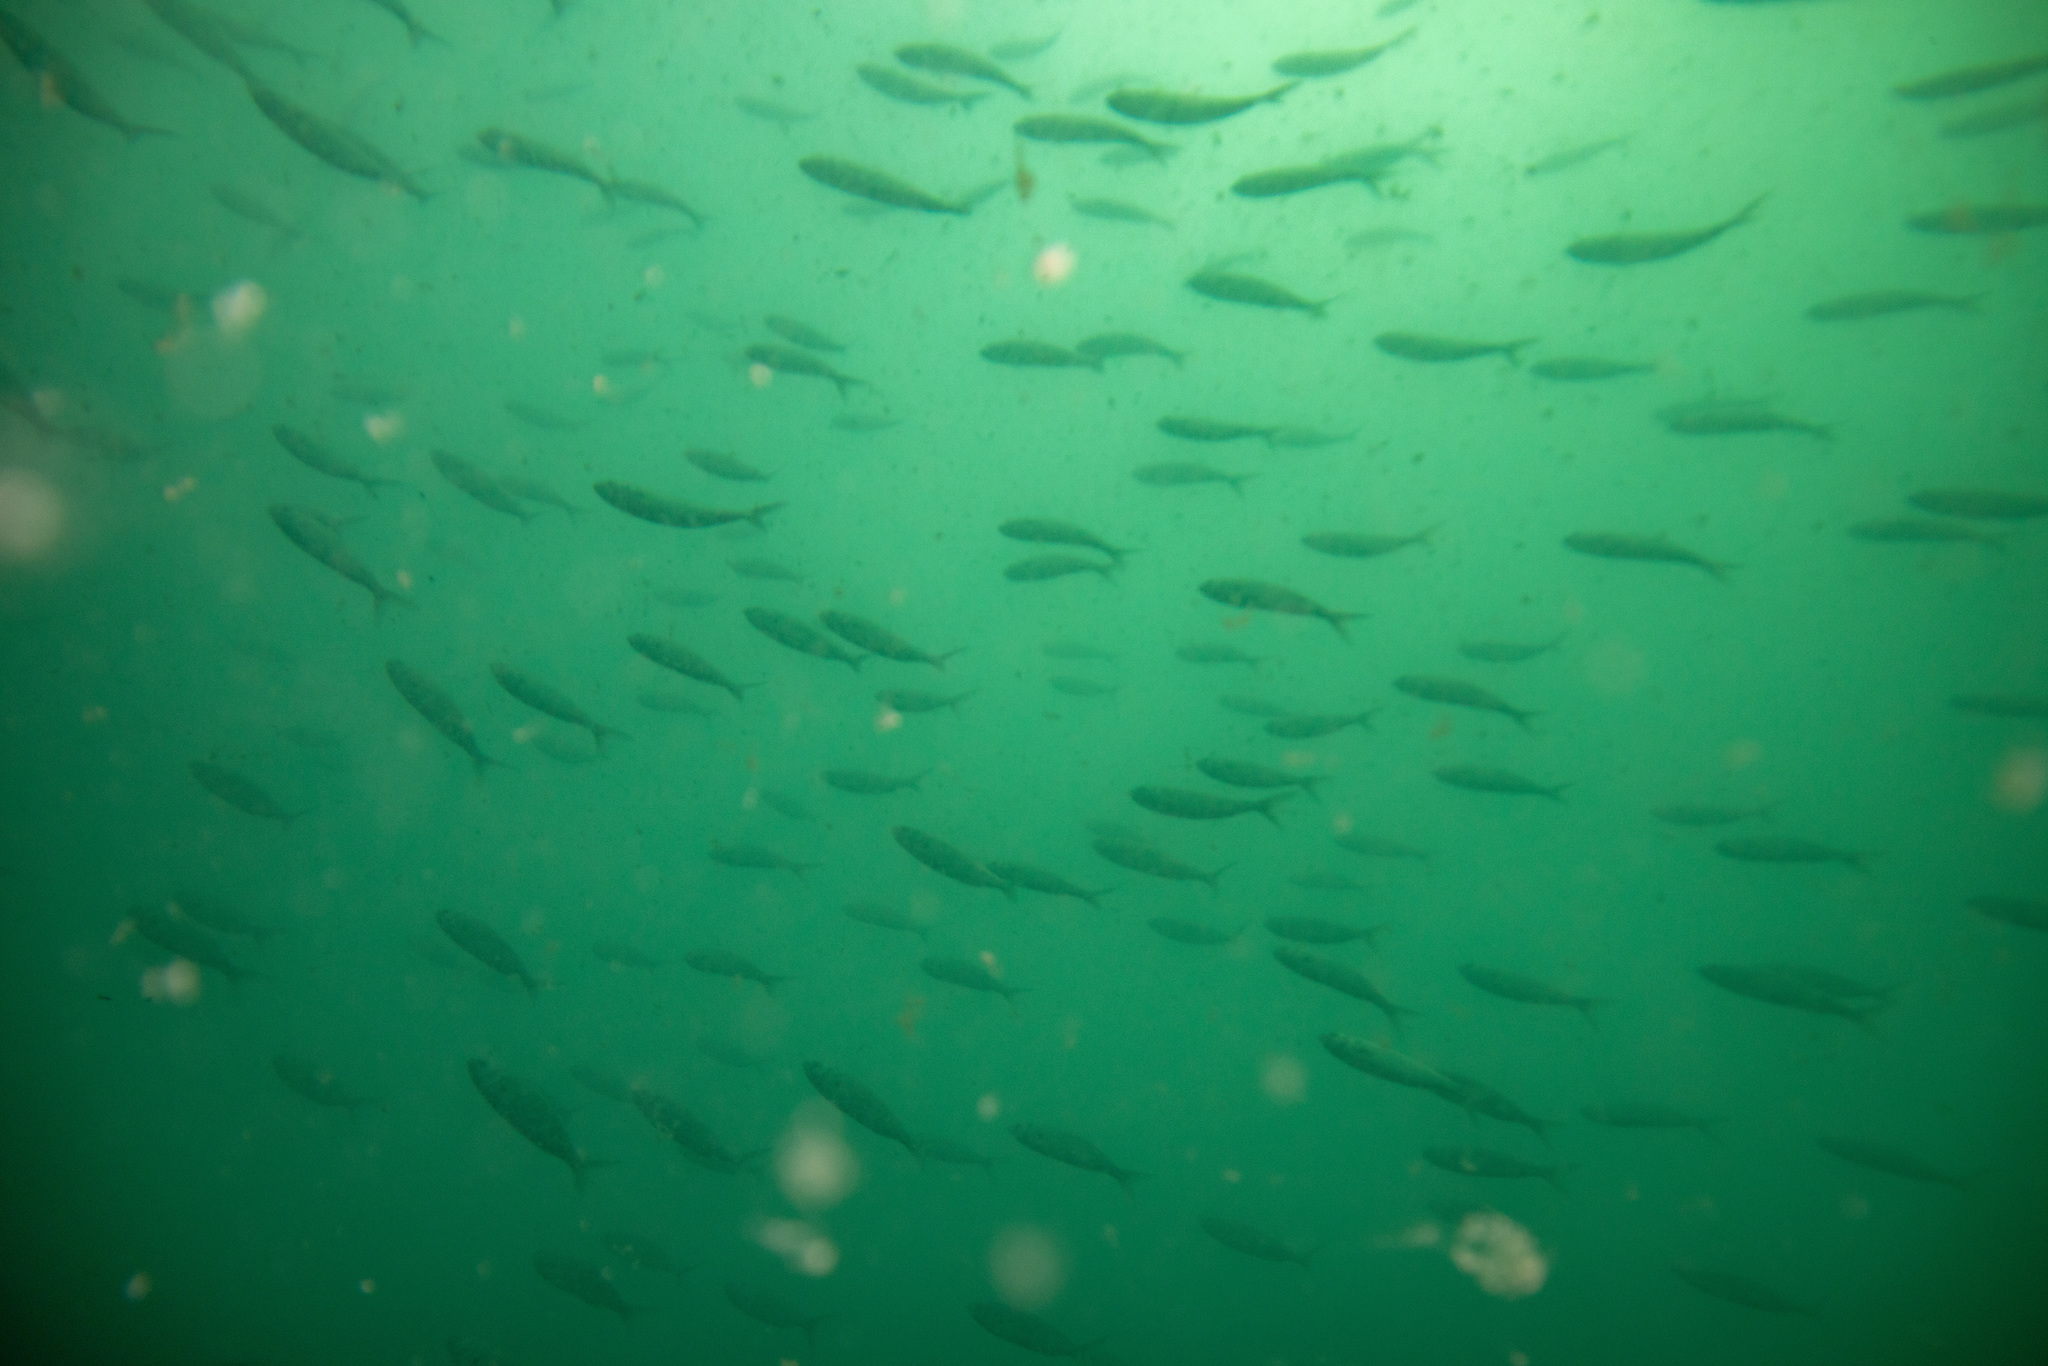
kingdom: Animalia
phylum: Chordata
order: Perciformes
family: Arripidae
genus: Arripis
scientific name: Arripis trutta
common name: Kahawai
